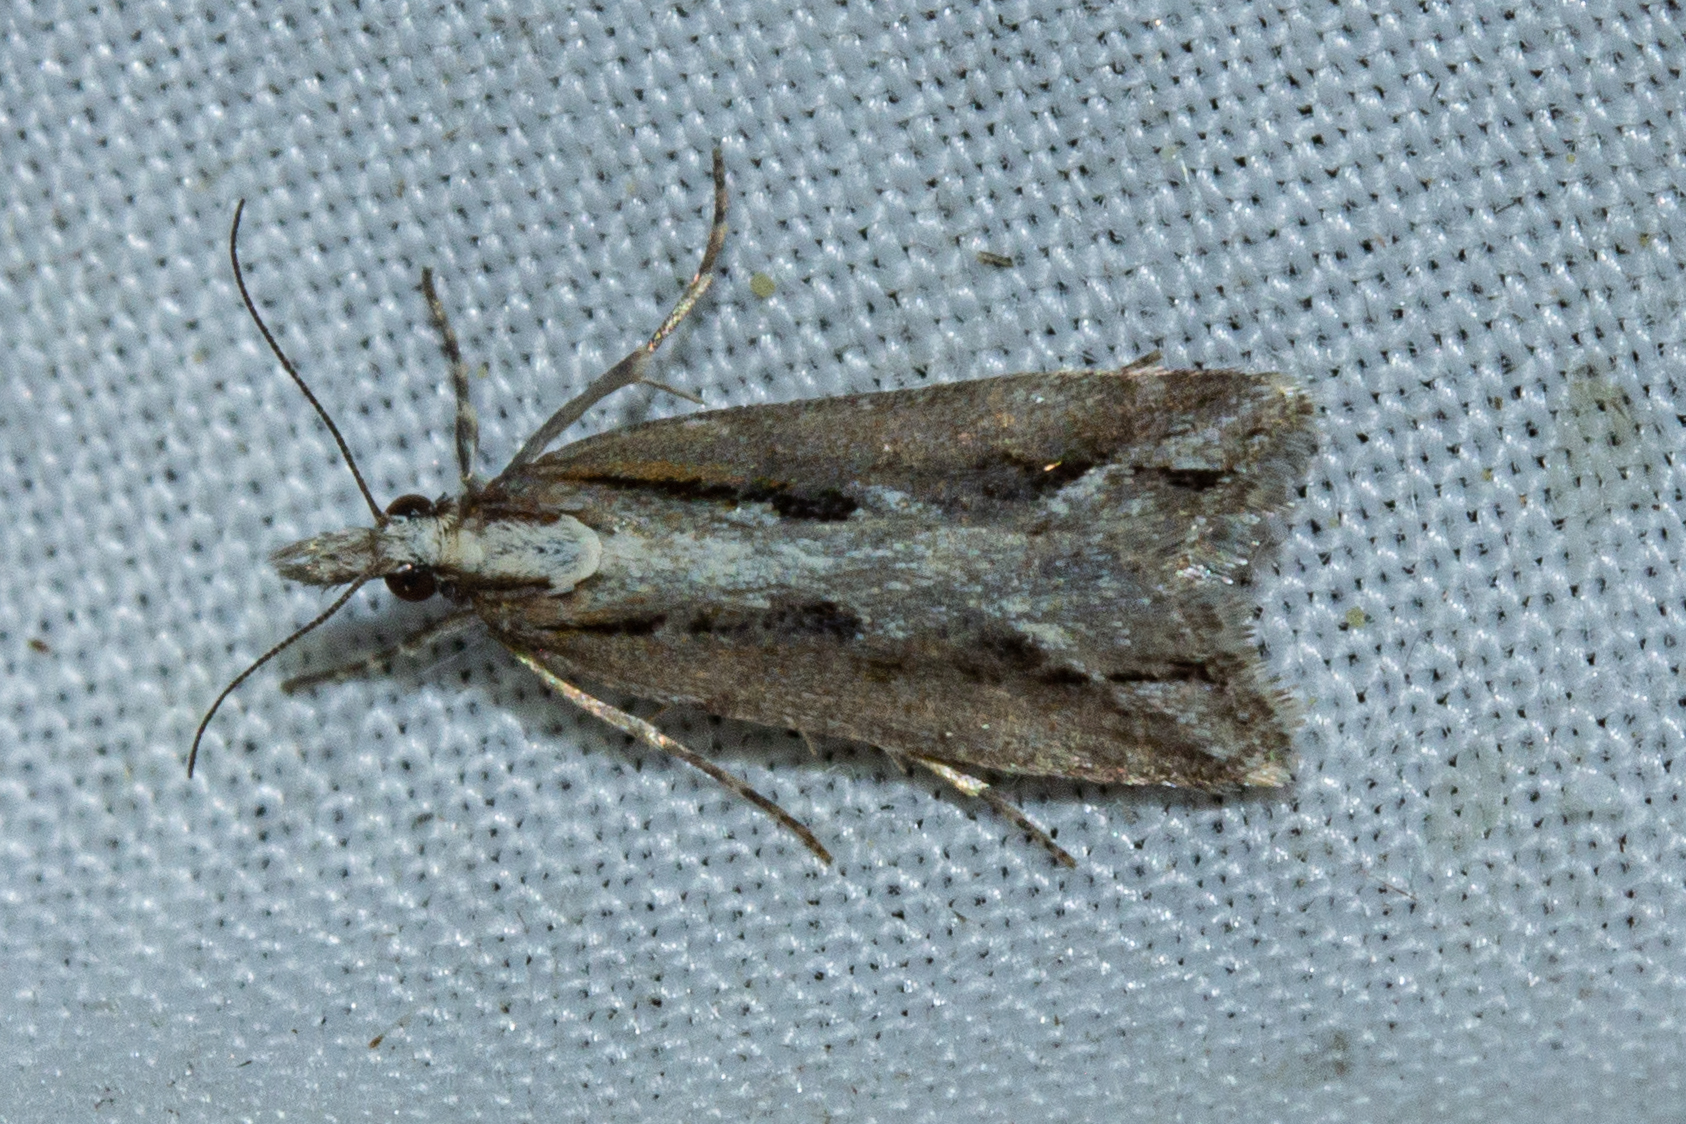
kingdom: Animalia
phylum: Arthropoda
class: Insecta
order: Lepidoptera
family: Crambidae
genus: Eudonia
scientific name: Eudonia steropaea
